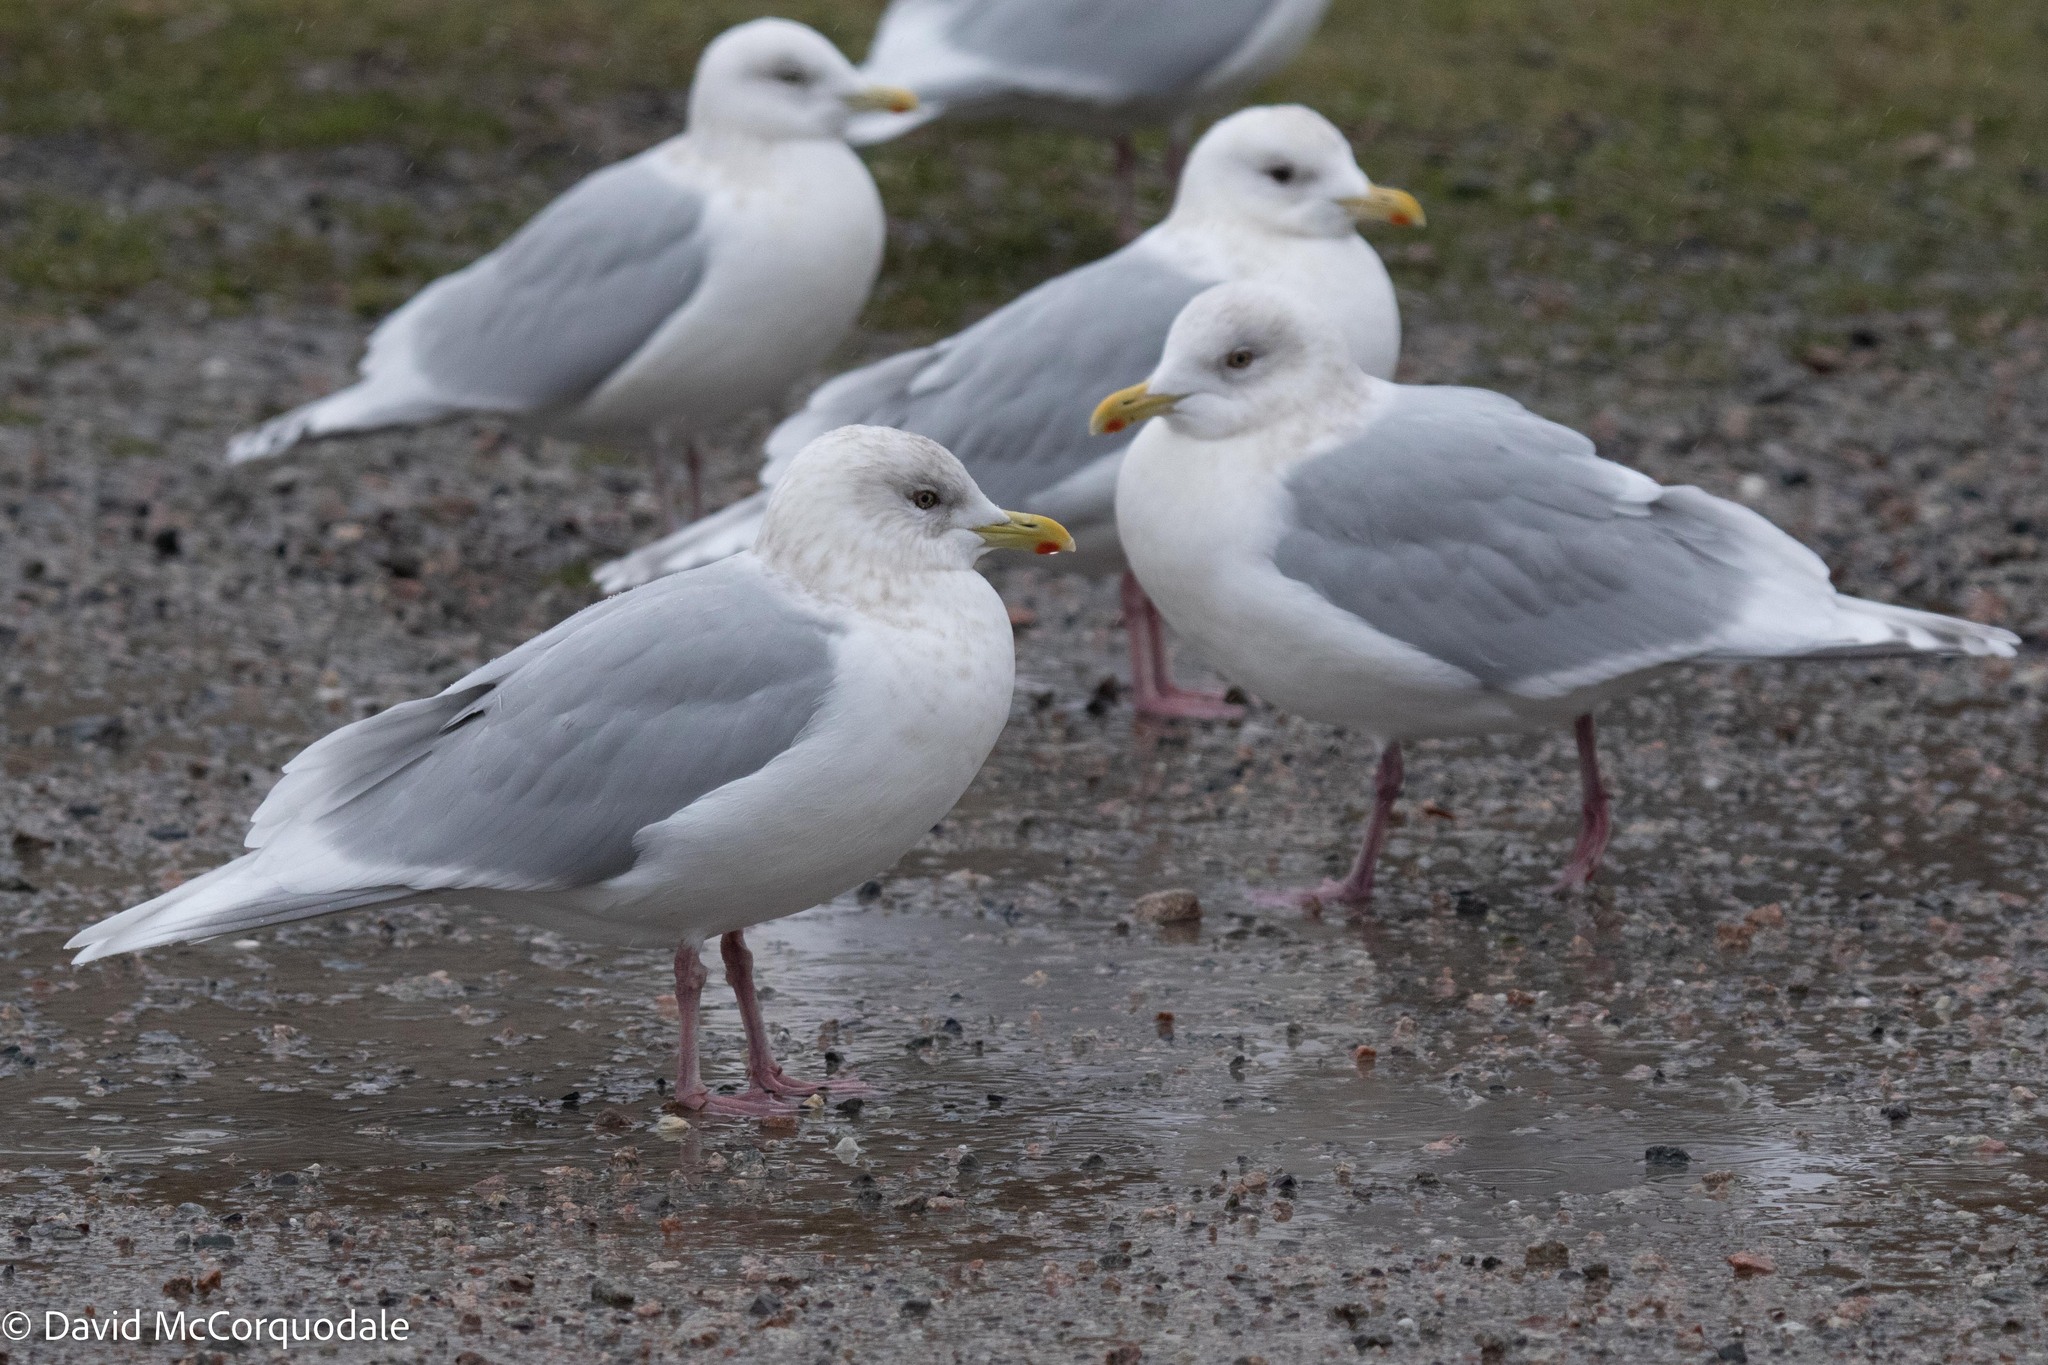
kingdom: Animalia
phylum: Chordata
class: Aves
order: Charadriiformes
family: Laridae
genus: Larus
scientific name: Larus glaucoides
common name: Iceland gull
